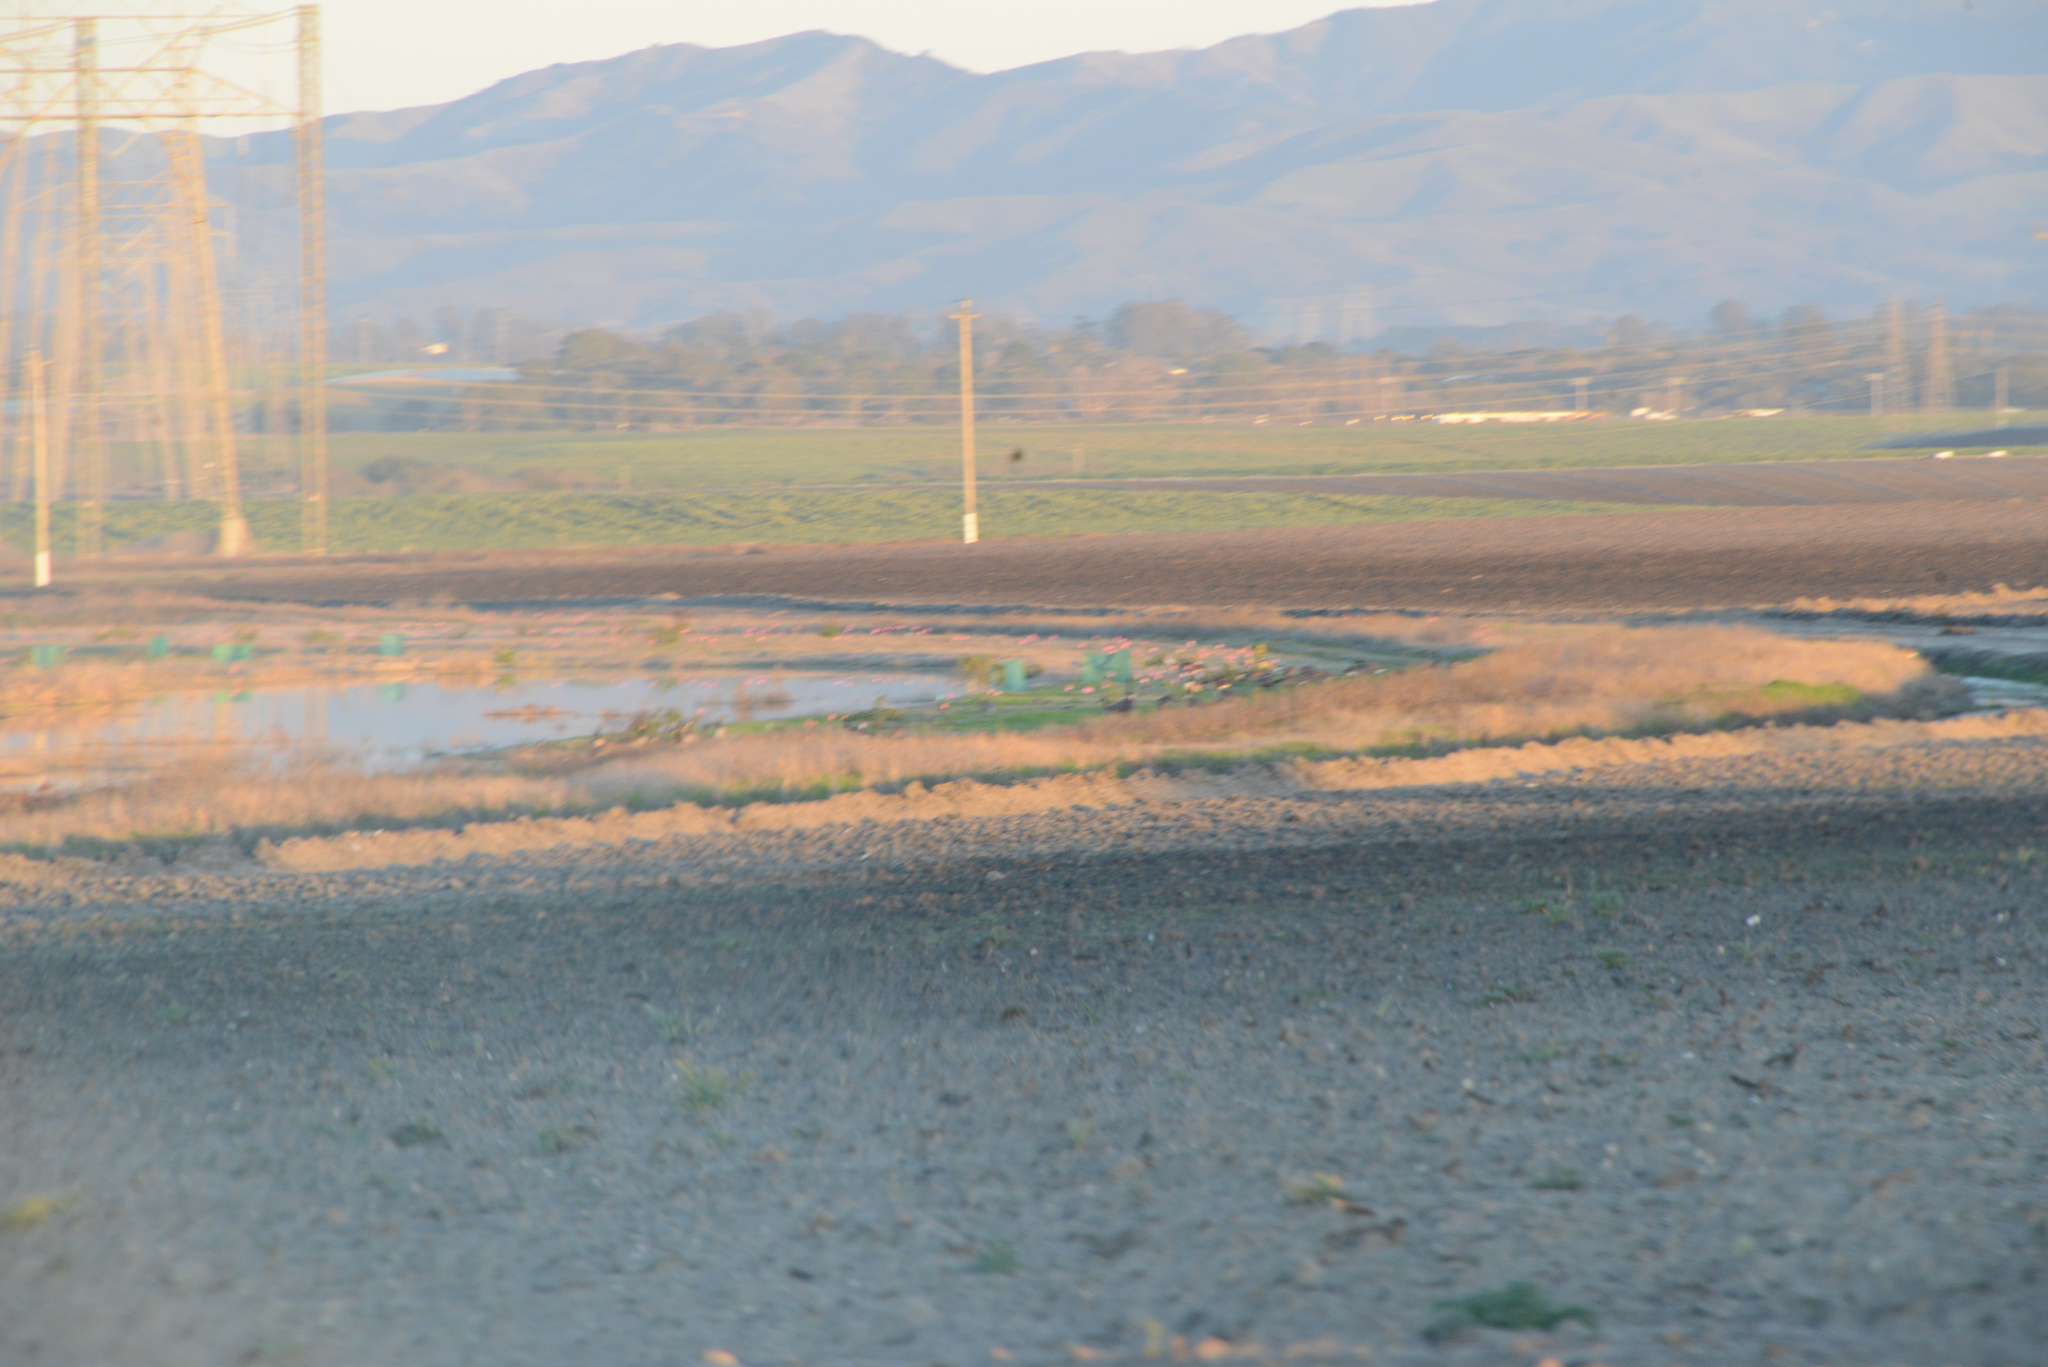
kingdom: Animalia
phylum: Chordata
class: Aves
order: Anseriformes
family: Anatidae
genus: Branta
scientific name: Branta canadensis
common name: Canada goose
